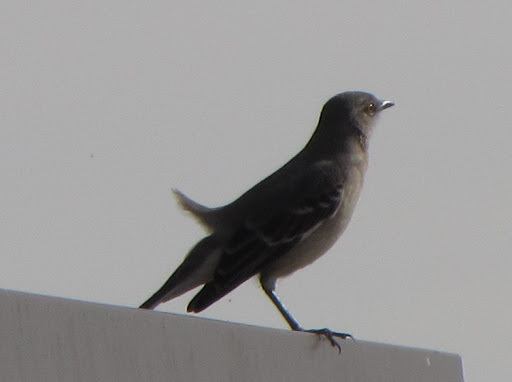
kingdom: Animalia
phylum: Chordata
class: Aves
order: Passeriformes
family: Mimidae
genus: Mimus
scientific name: Mimus polyglottos
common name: Northern mockingbird
